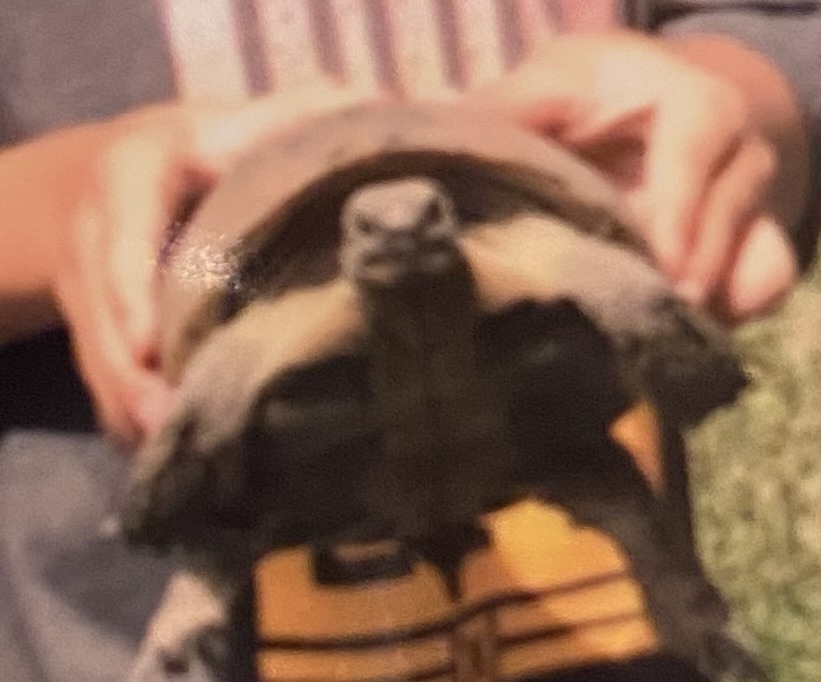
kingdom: Animalia
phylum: Chordata
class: Testudines
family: Testudinidae
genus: Testudo
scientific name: Testudo hermanni
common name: Hermann's tortoise
